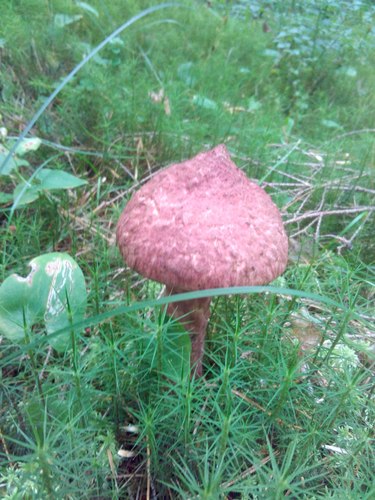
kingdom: Fungi
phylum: Basidiomycota
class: Agaricomycetes
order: Boletales
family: Suillaceae
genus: Suillus
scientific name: Suillus spraguei
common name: Painted suillus
